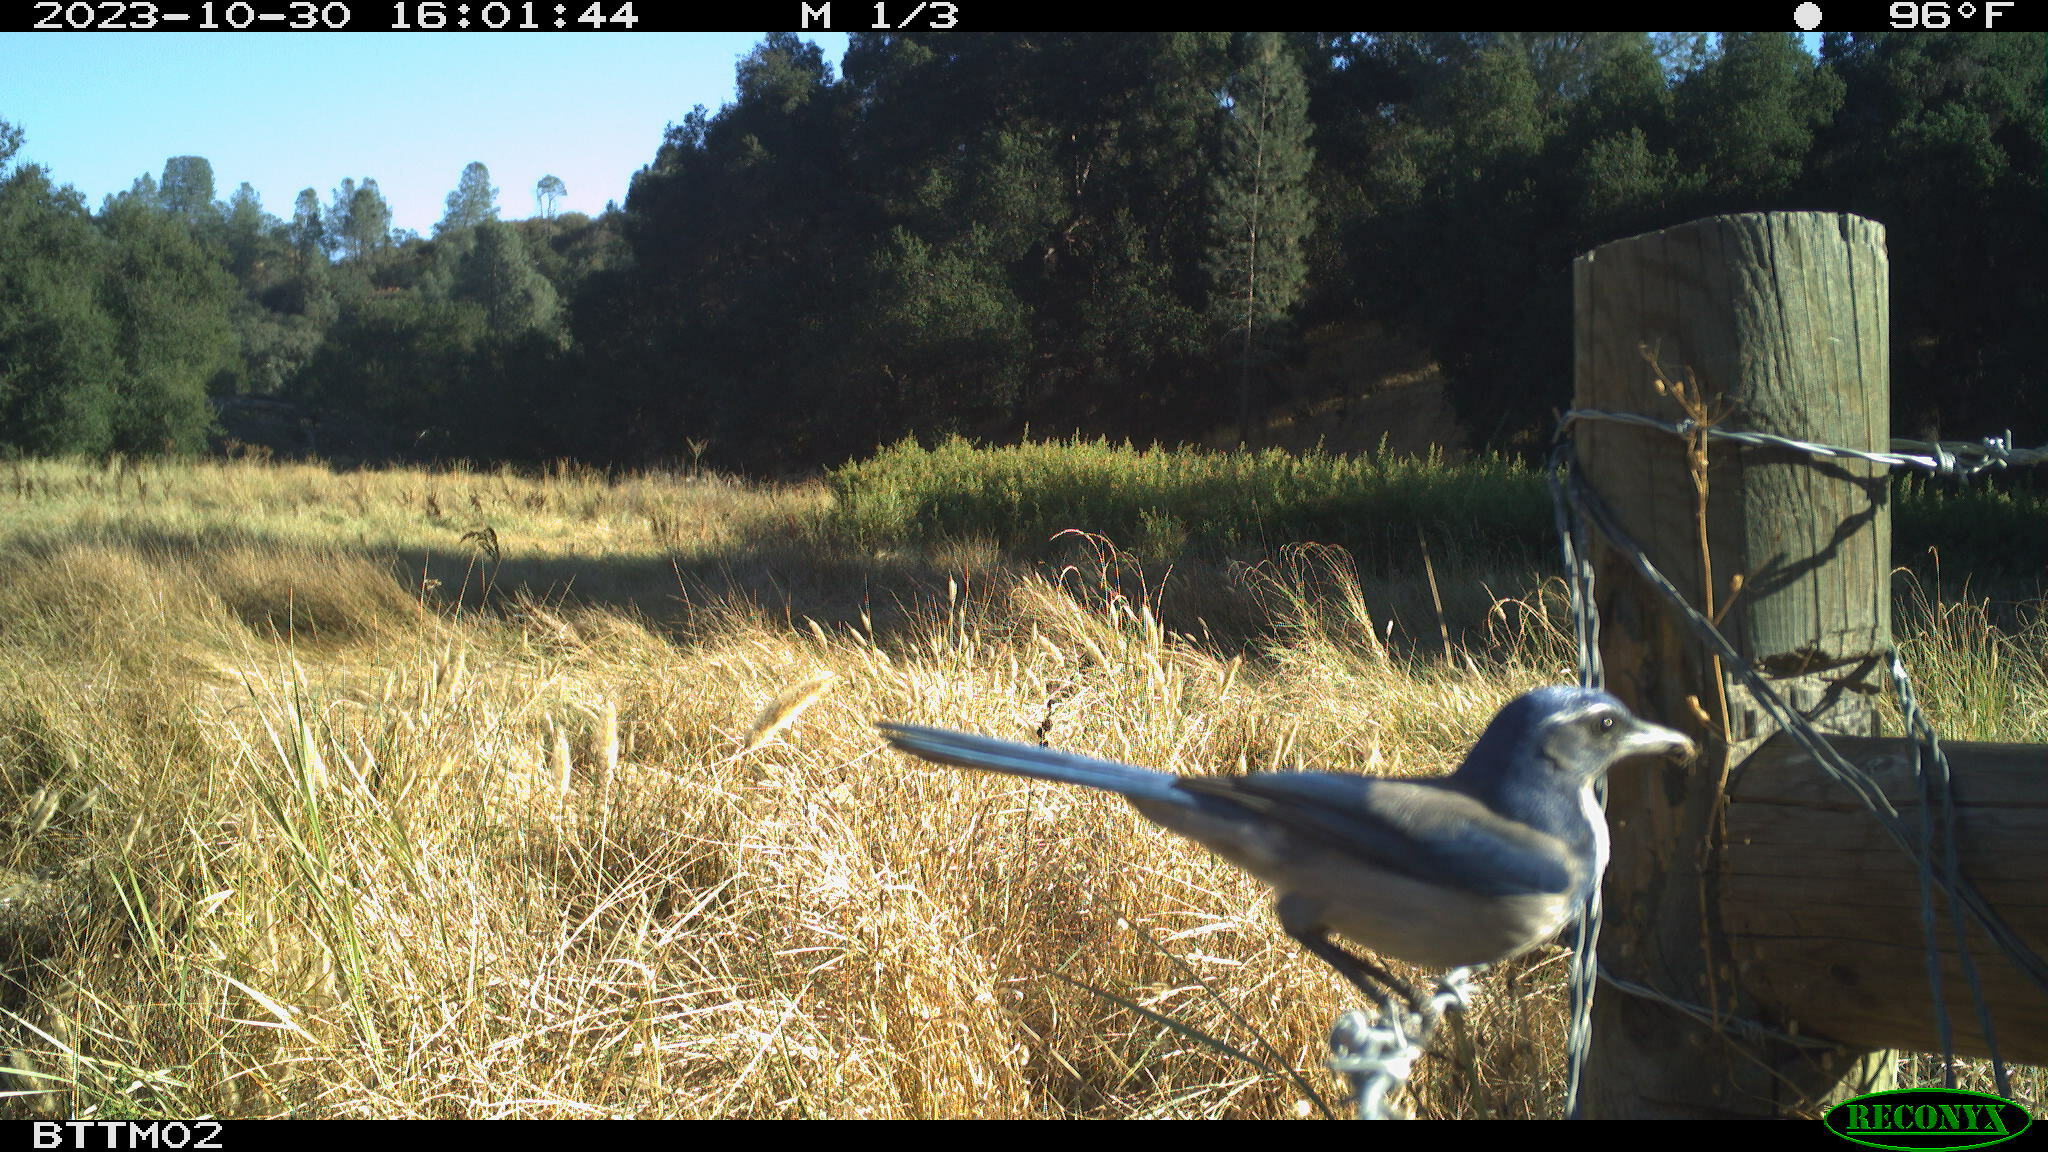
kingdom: Animalia
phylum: Chordata
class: Aves
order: Passeriformes
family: Corvidae
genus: Aphelocoma
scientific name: Aphelocoma californica
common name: California scrub-jay
